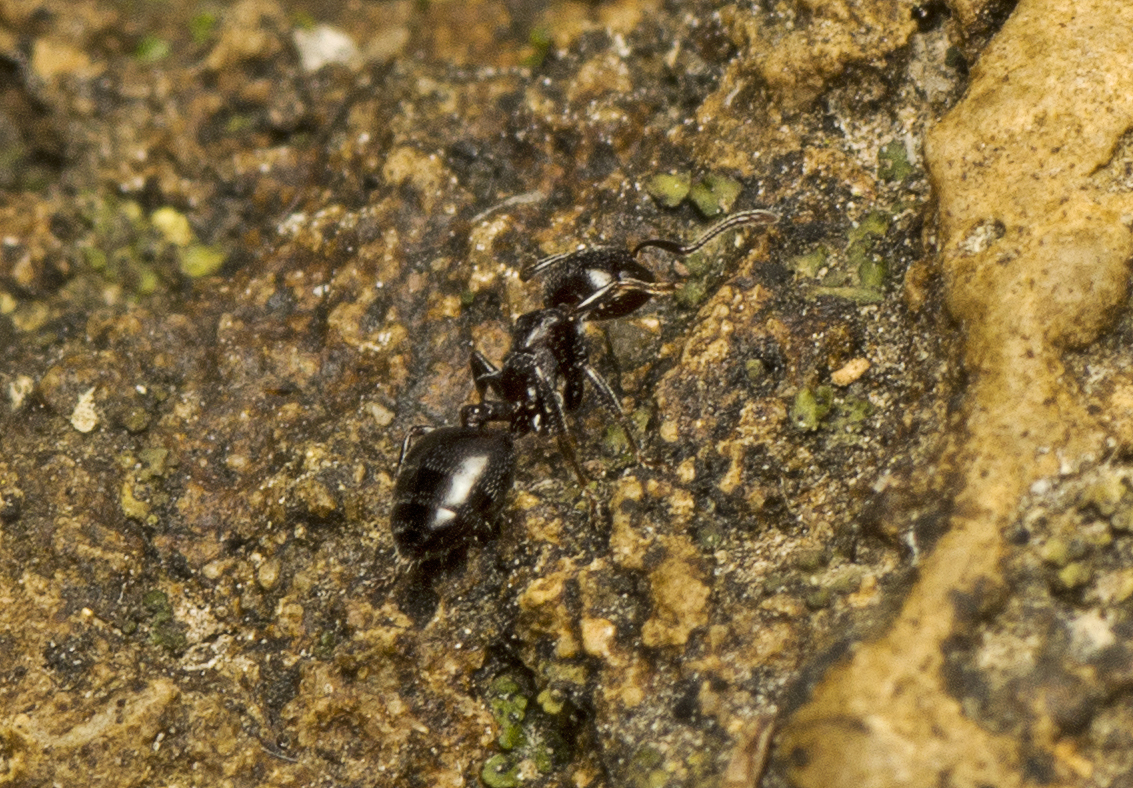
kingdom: Animalia
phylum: Arthropoda
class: Insecta
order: Hymenoptera
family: Formicidae
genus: Crematogaster
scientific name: Crematogaster cornigera
